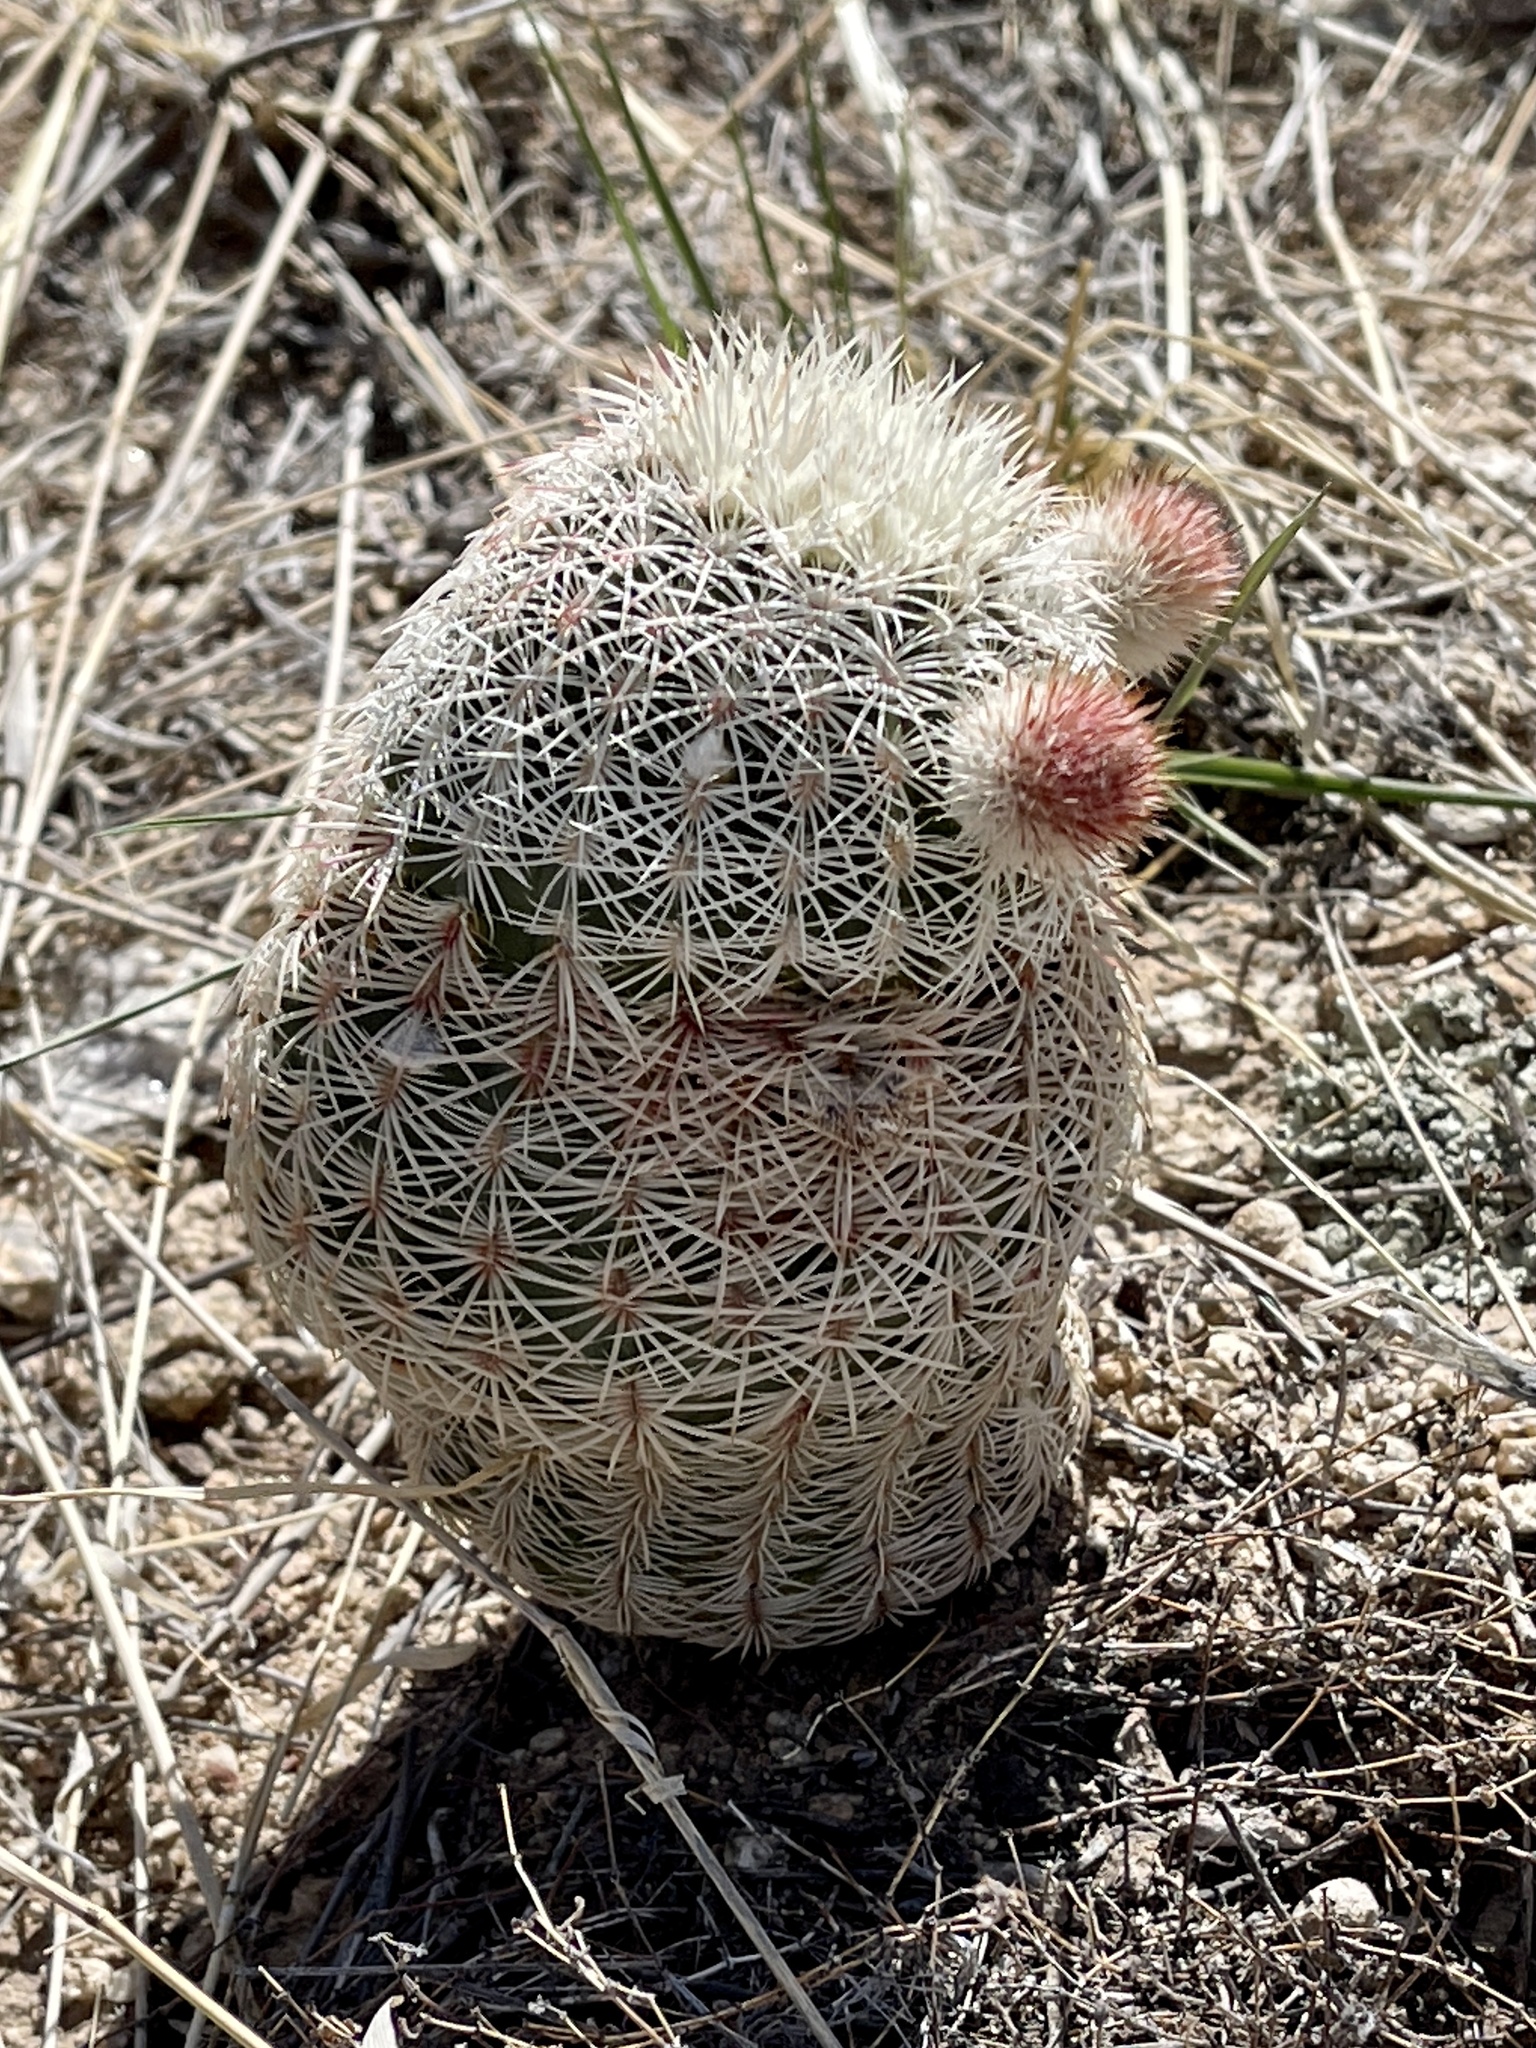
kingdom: Plantae
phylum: Tracheophyta
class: Magnoliopsida
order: Caryophyllales
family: Cactaceae
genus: Echinocereus
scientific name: Echinocereus rigidissimus
